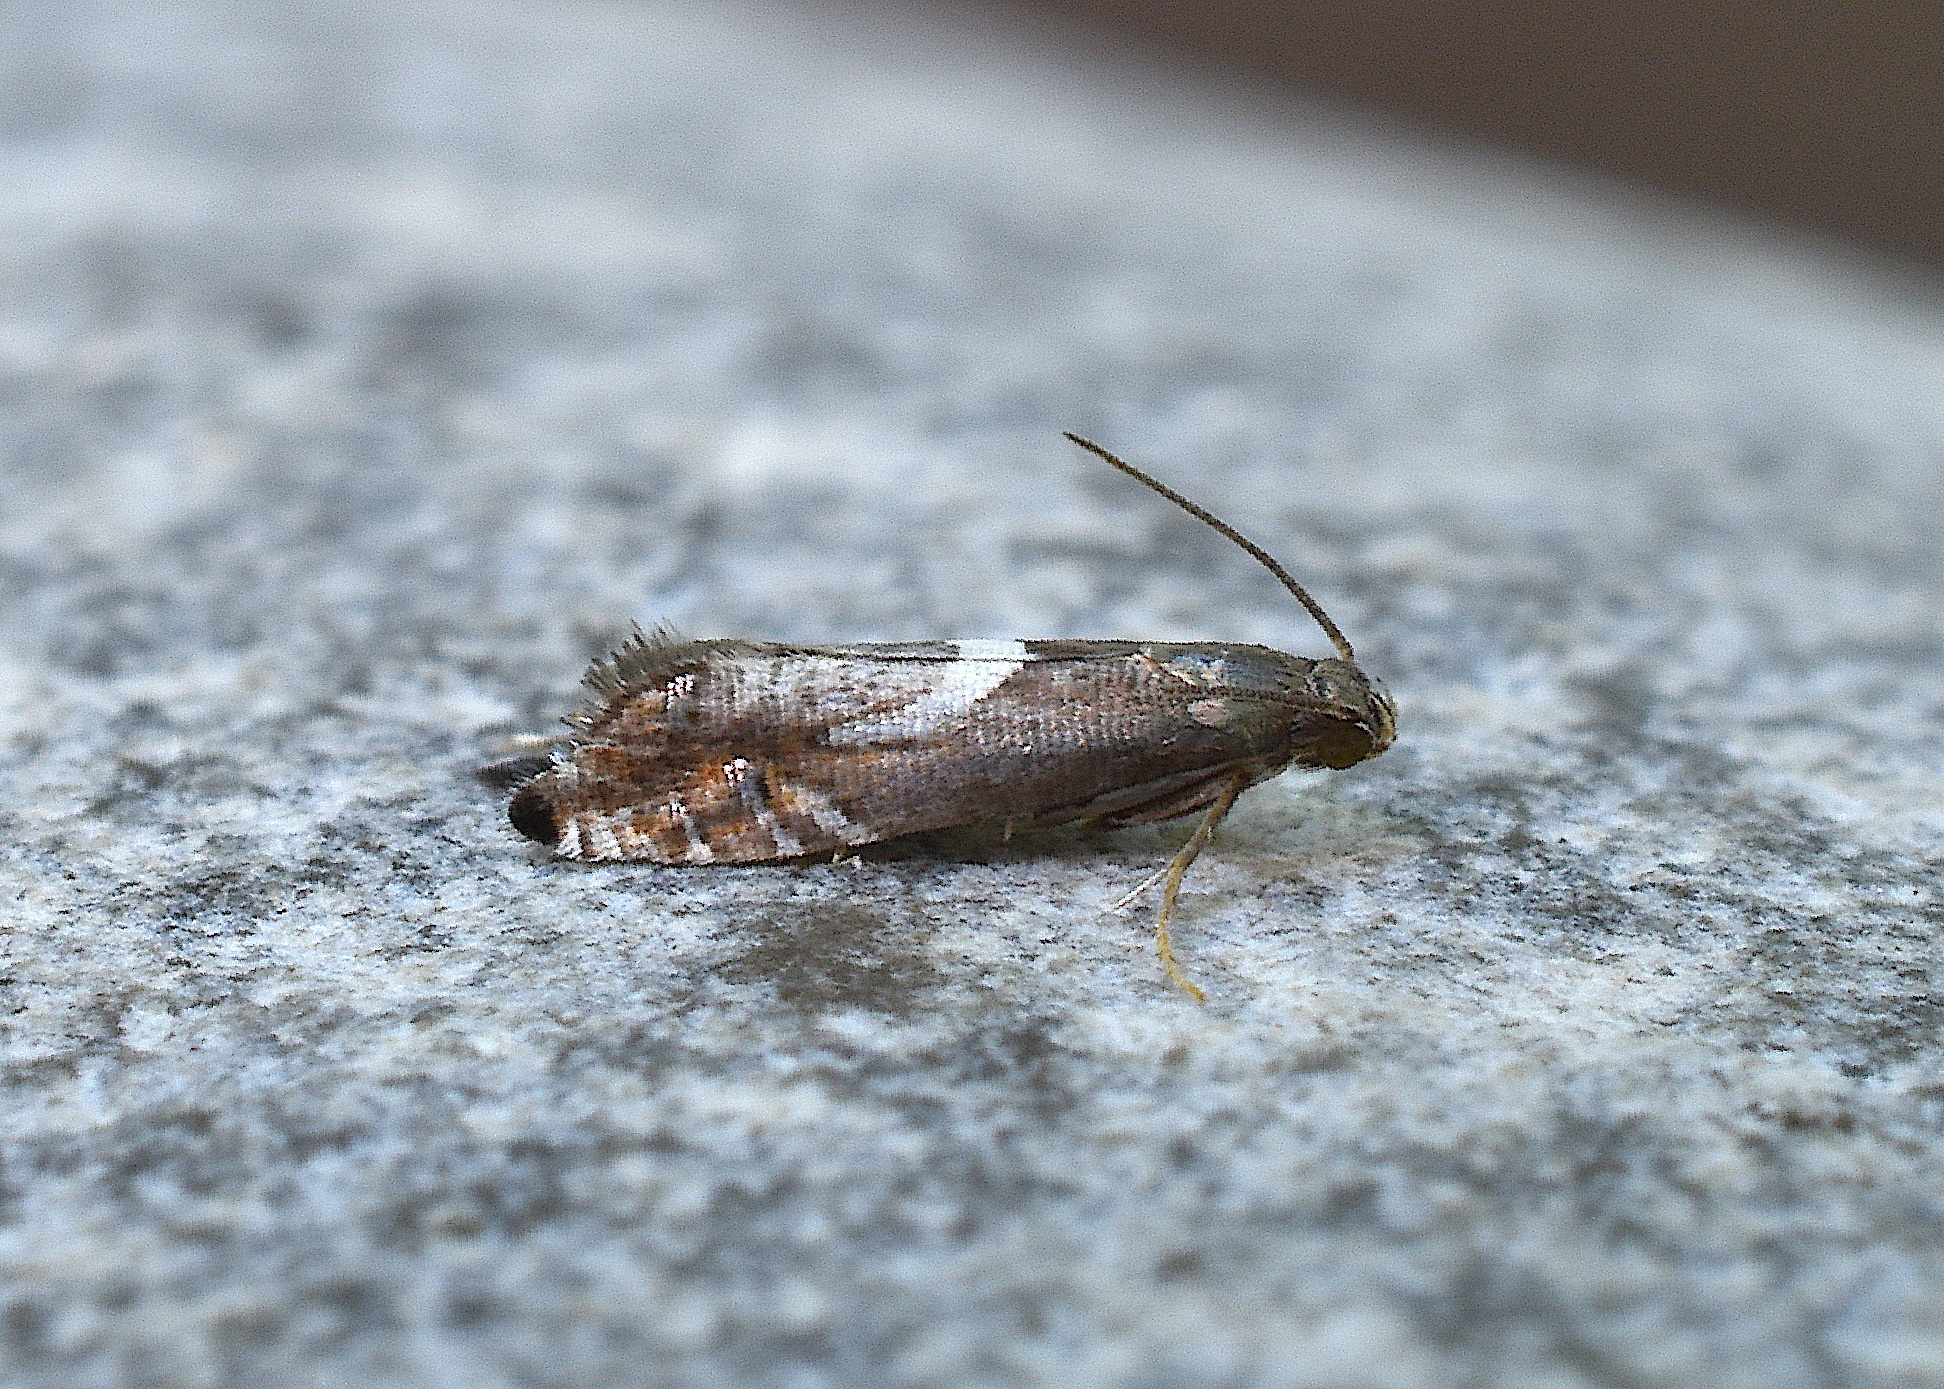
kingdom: Animalia
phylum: Arthropoda
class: Insecta
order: Lepidoptera
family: Glyphipterigidae
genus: Glyphipterix
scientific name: Glyphipterix Diploschizia impigritella
